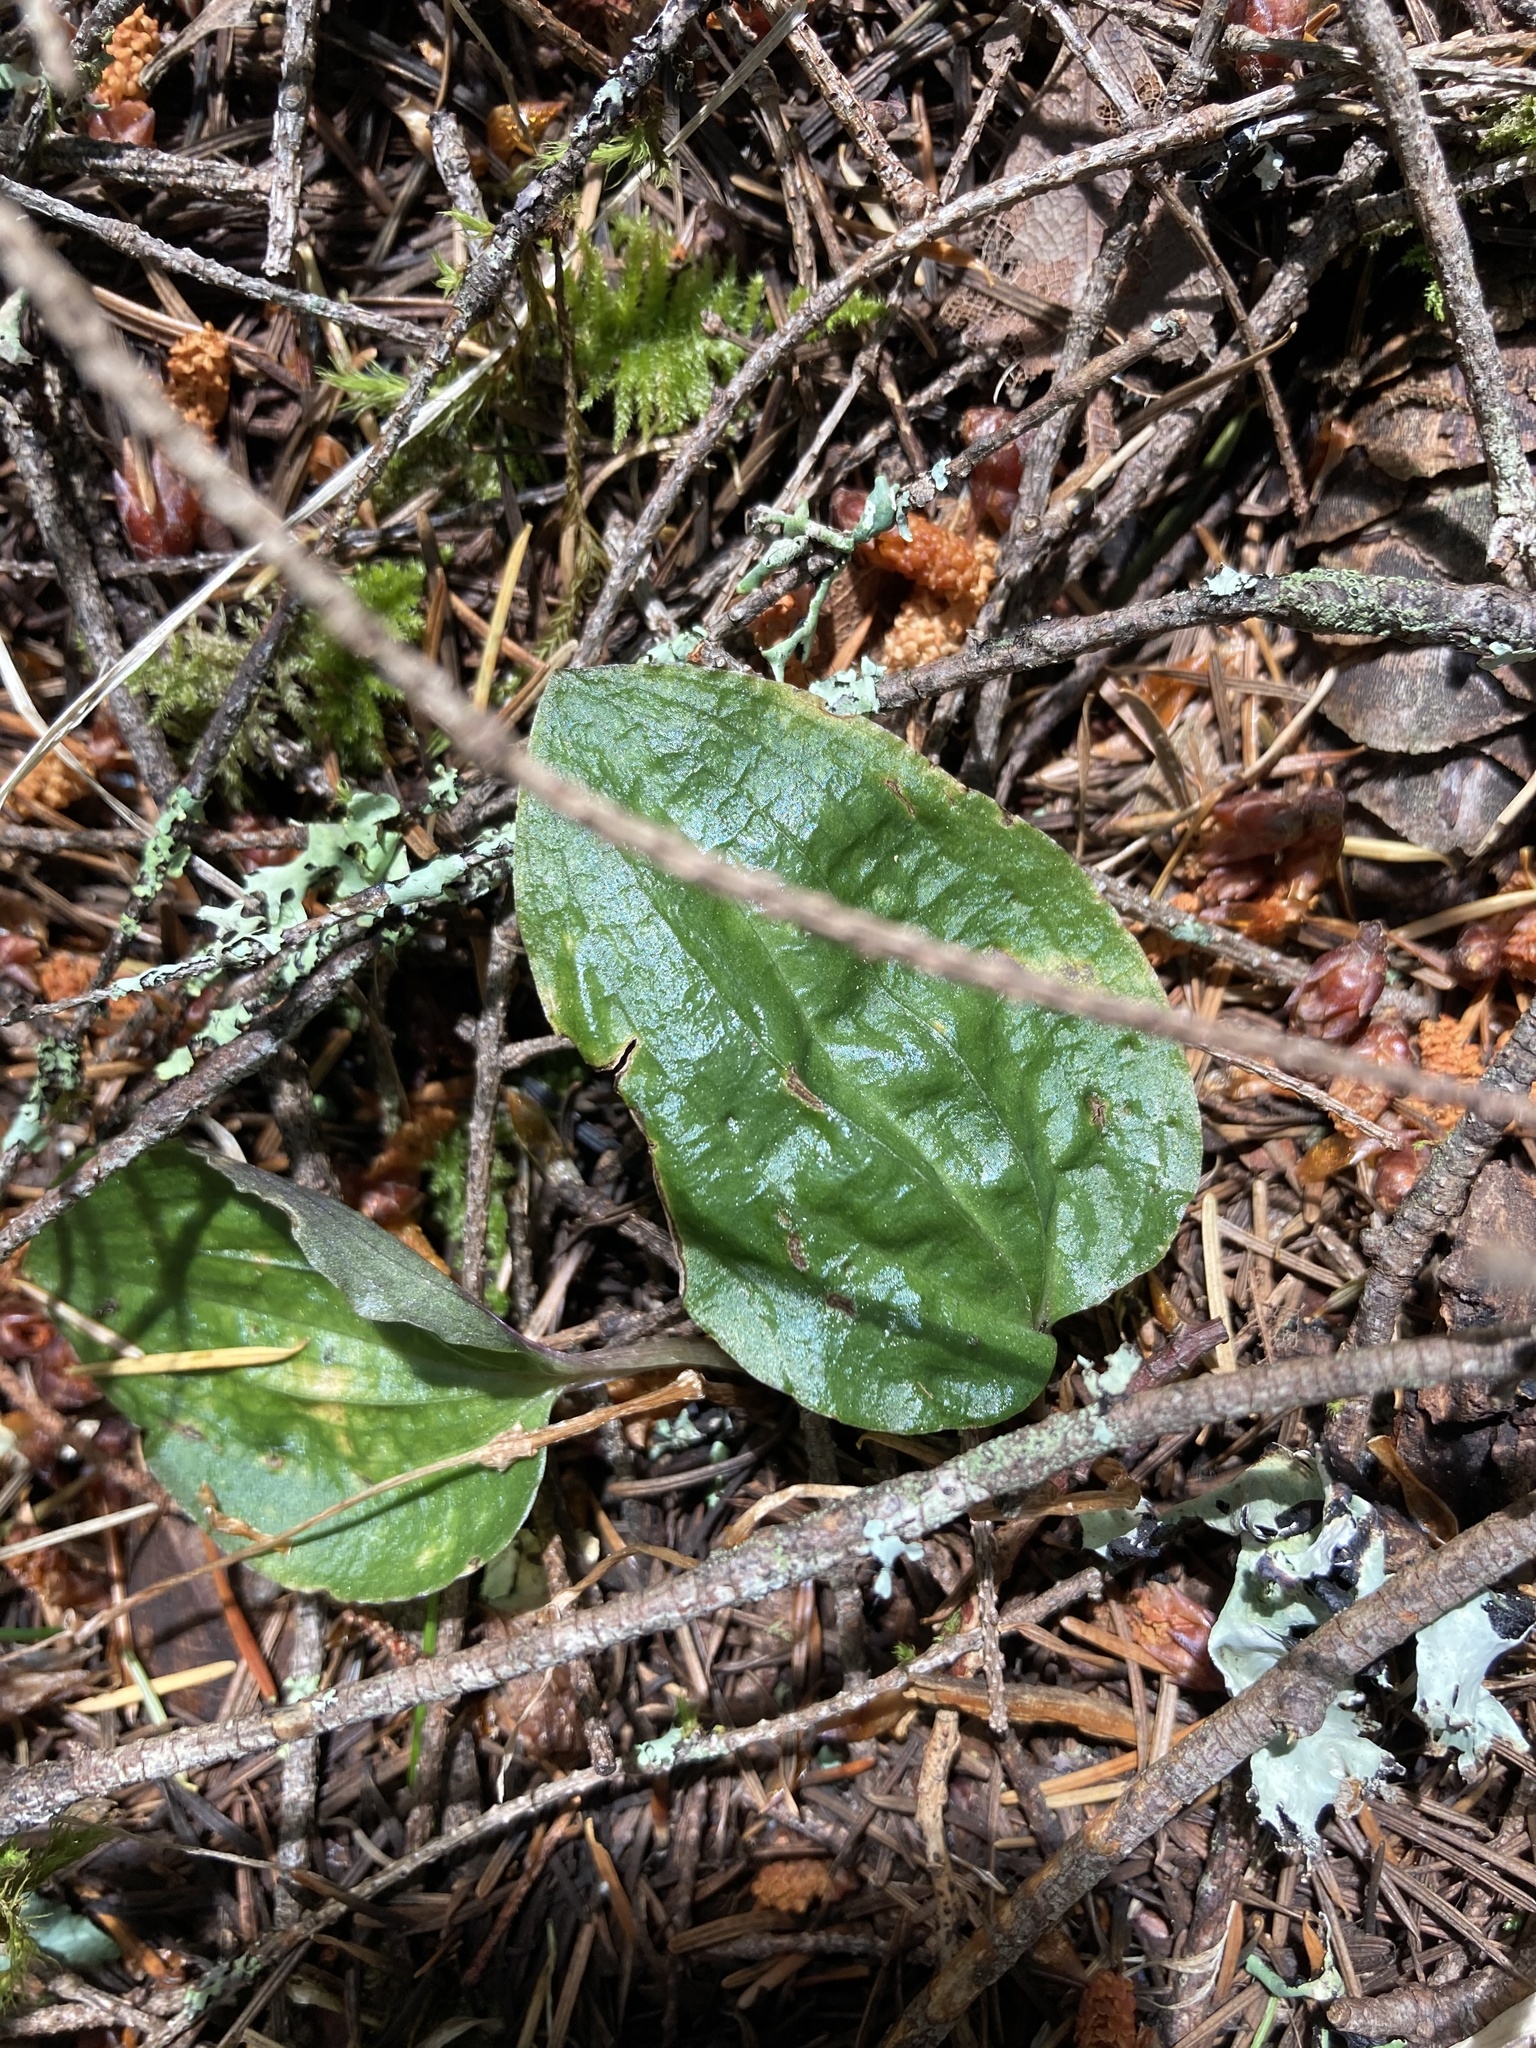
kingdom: Plantae
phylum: Tracheophyta
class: Liliopsida
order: Asparagales
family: Orchidaceae
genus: Calypso
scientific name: Calypso bulbosa
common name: Calypso
